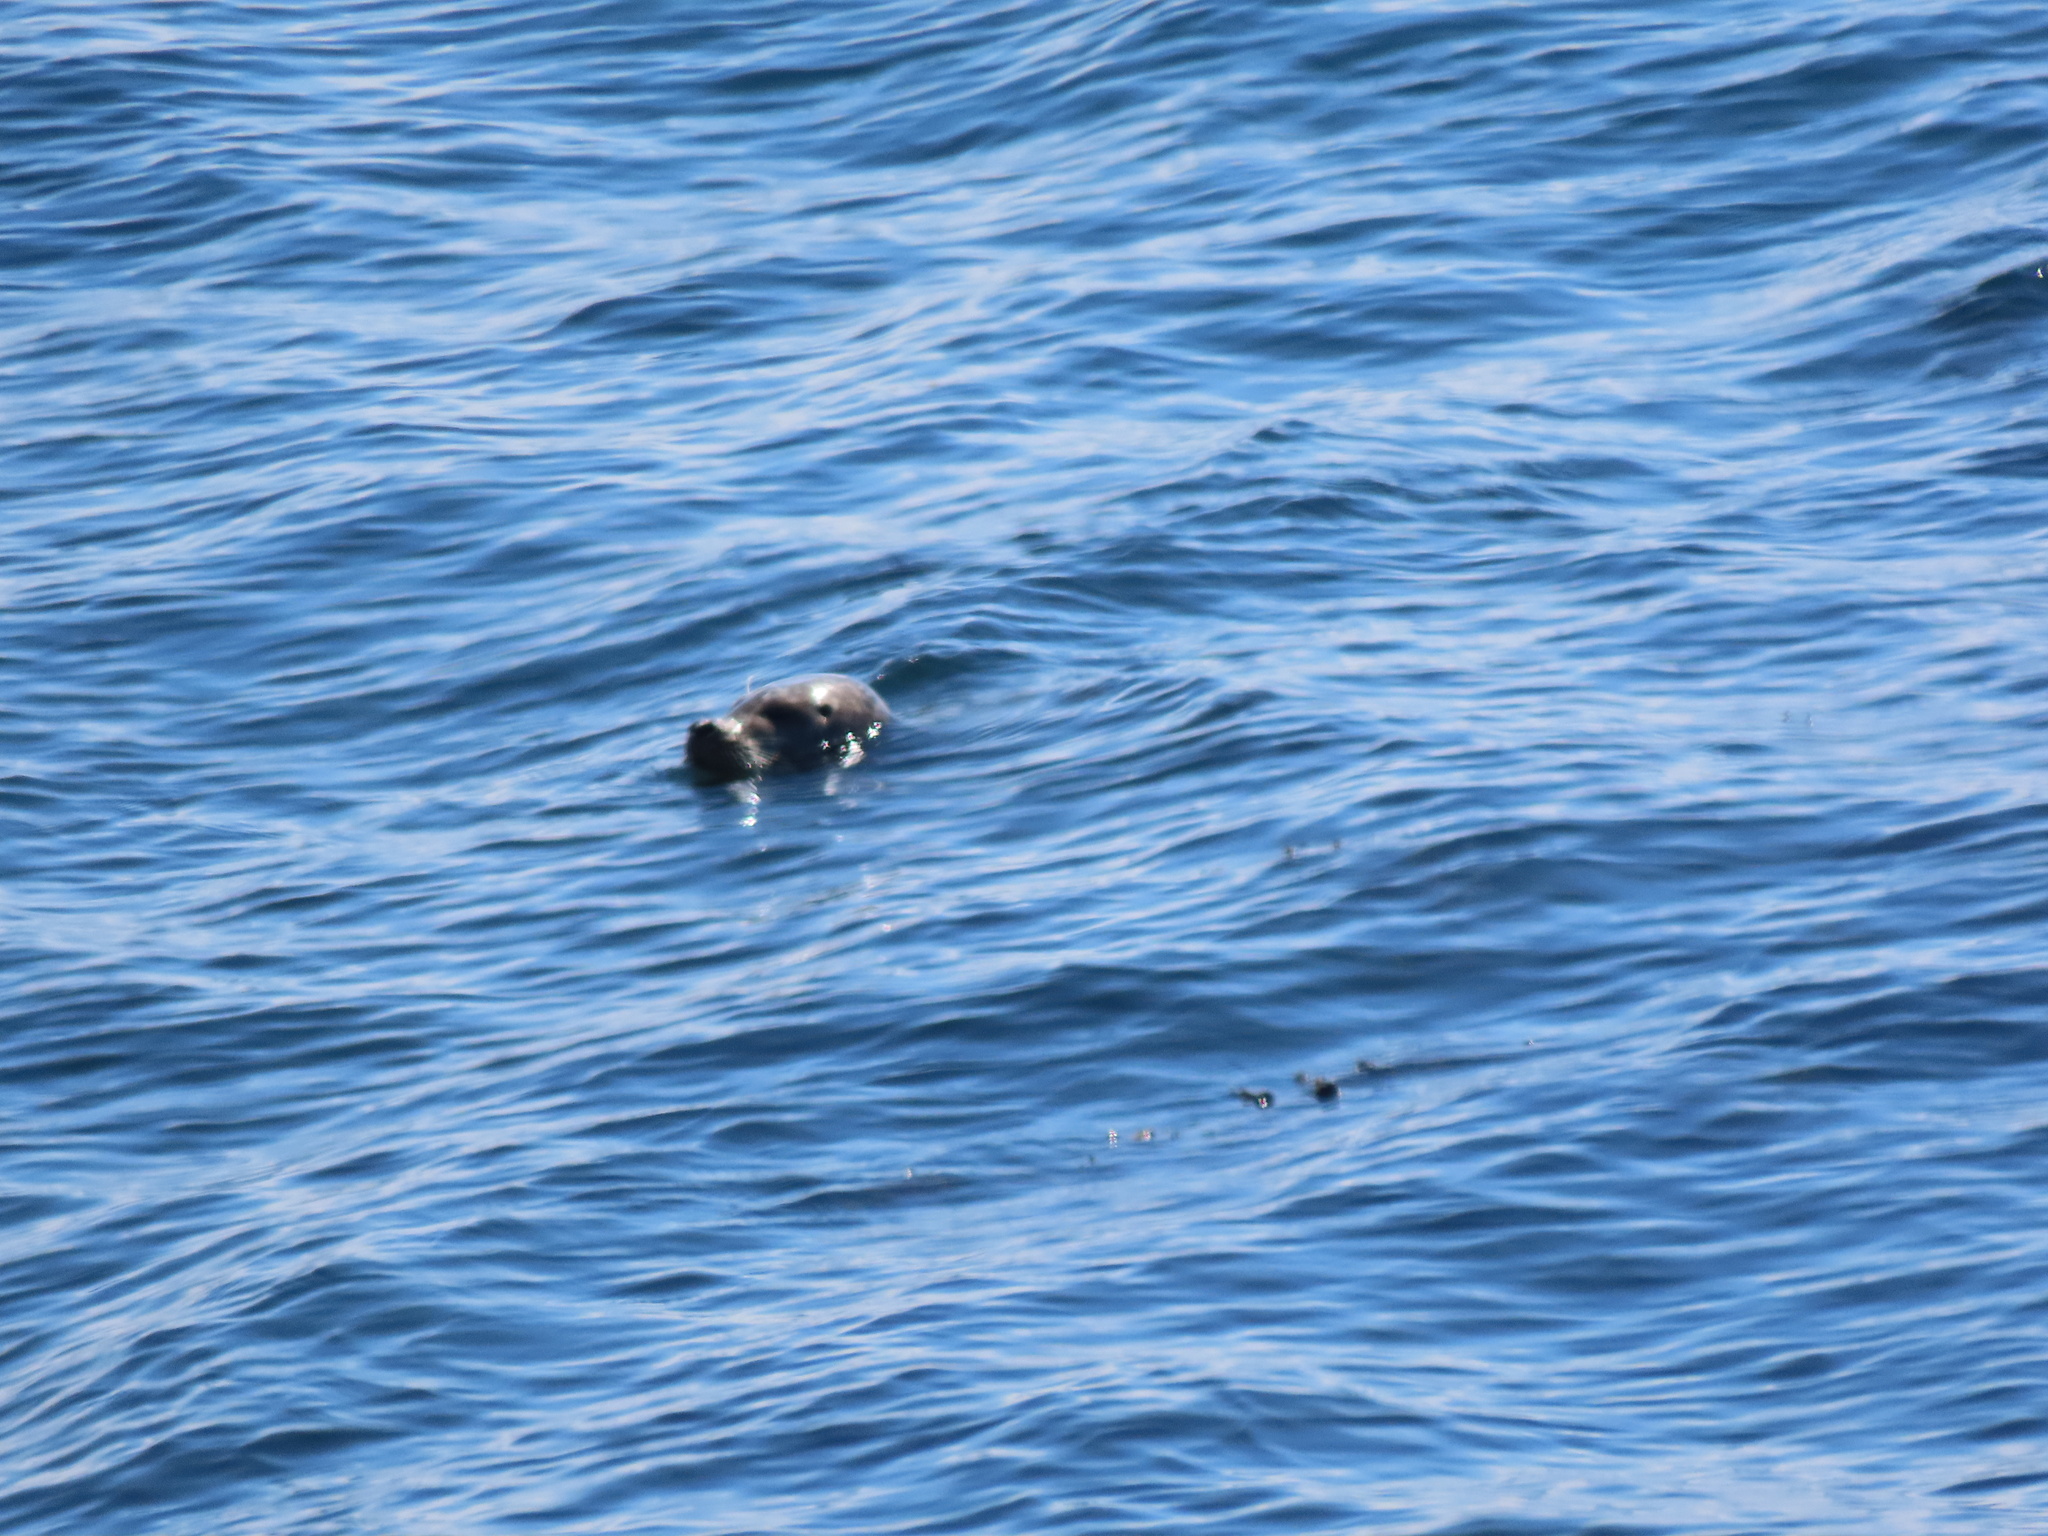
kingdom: Animalia
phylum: Chordata
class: Mammalia
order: Carnivora
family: Phocidae
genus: Phoca
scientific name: Phoca vitulina
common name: Harbor seal
